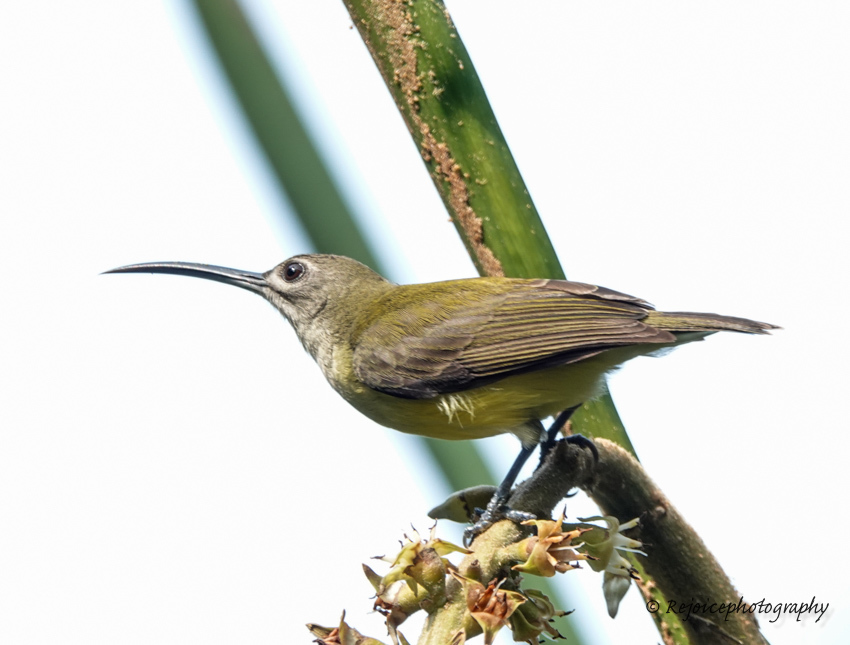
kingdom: Animalia
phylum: Chordata
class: Aves
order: Passeriformes
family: Nectariniidae
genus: Arachnothera
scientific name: Arachnothera longirostra
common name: Little spiderhunter
